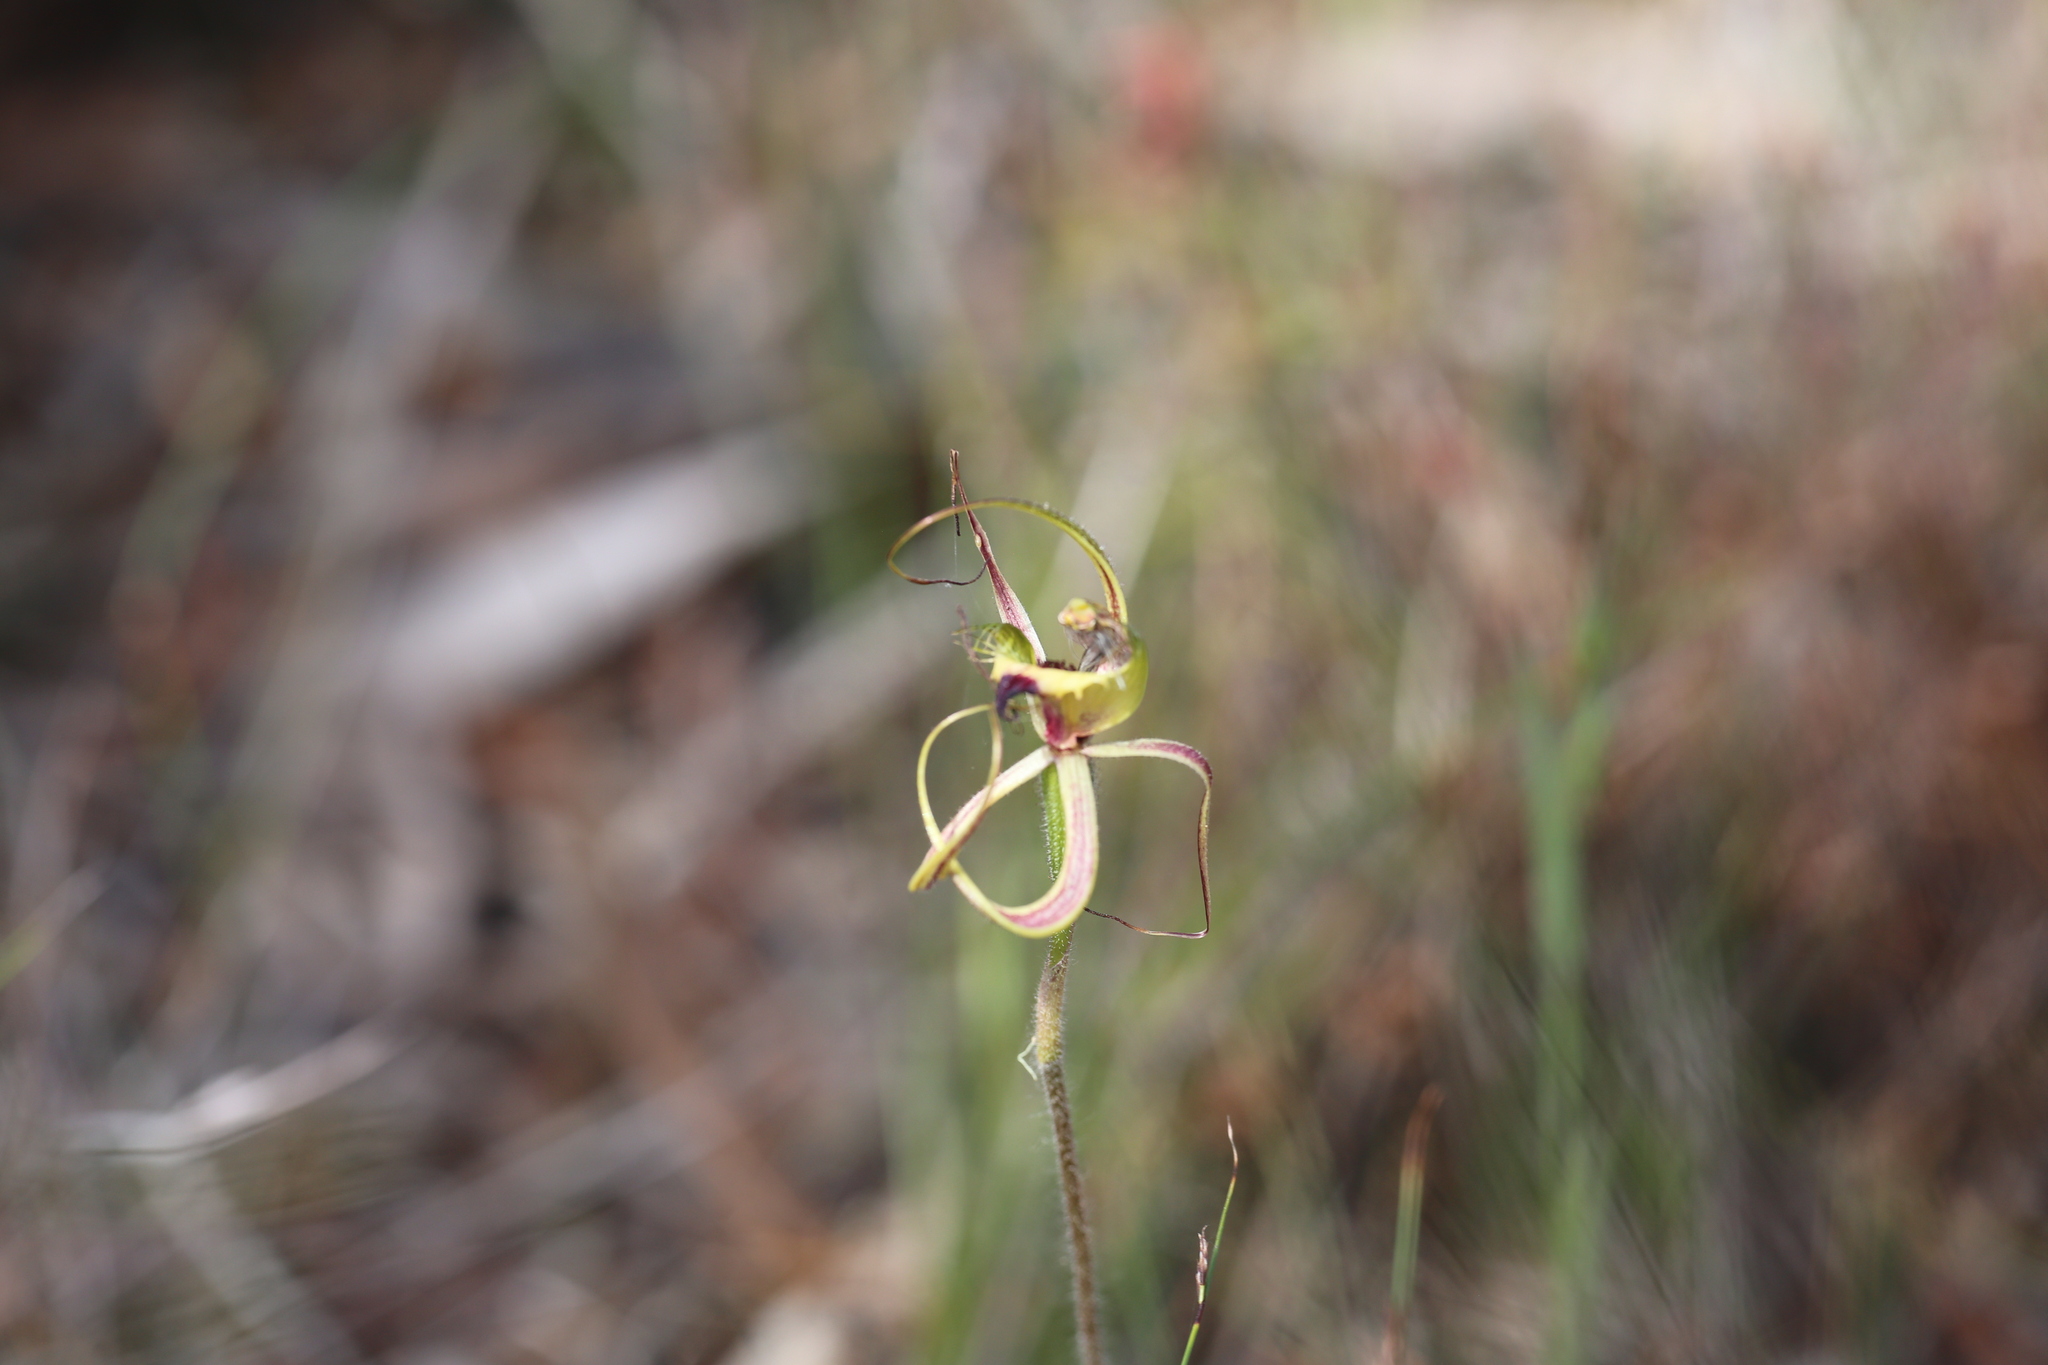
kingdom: Plantae
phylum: Tracheophyta
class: Liliopsida
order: Asparagales
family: Orchidaceae
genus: Caladenia
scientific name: Caladenia falcata
